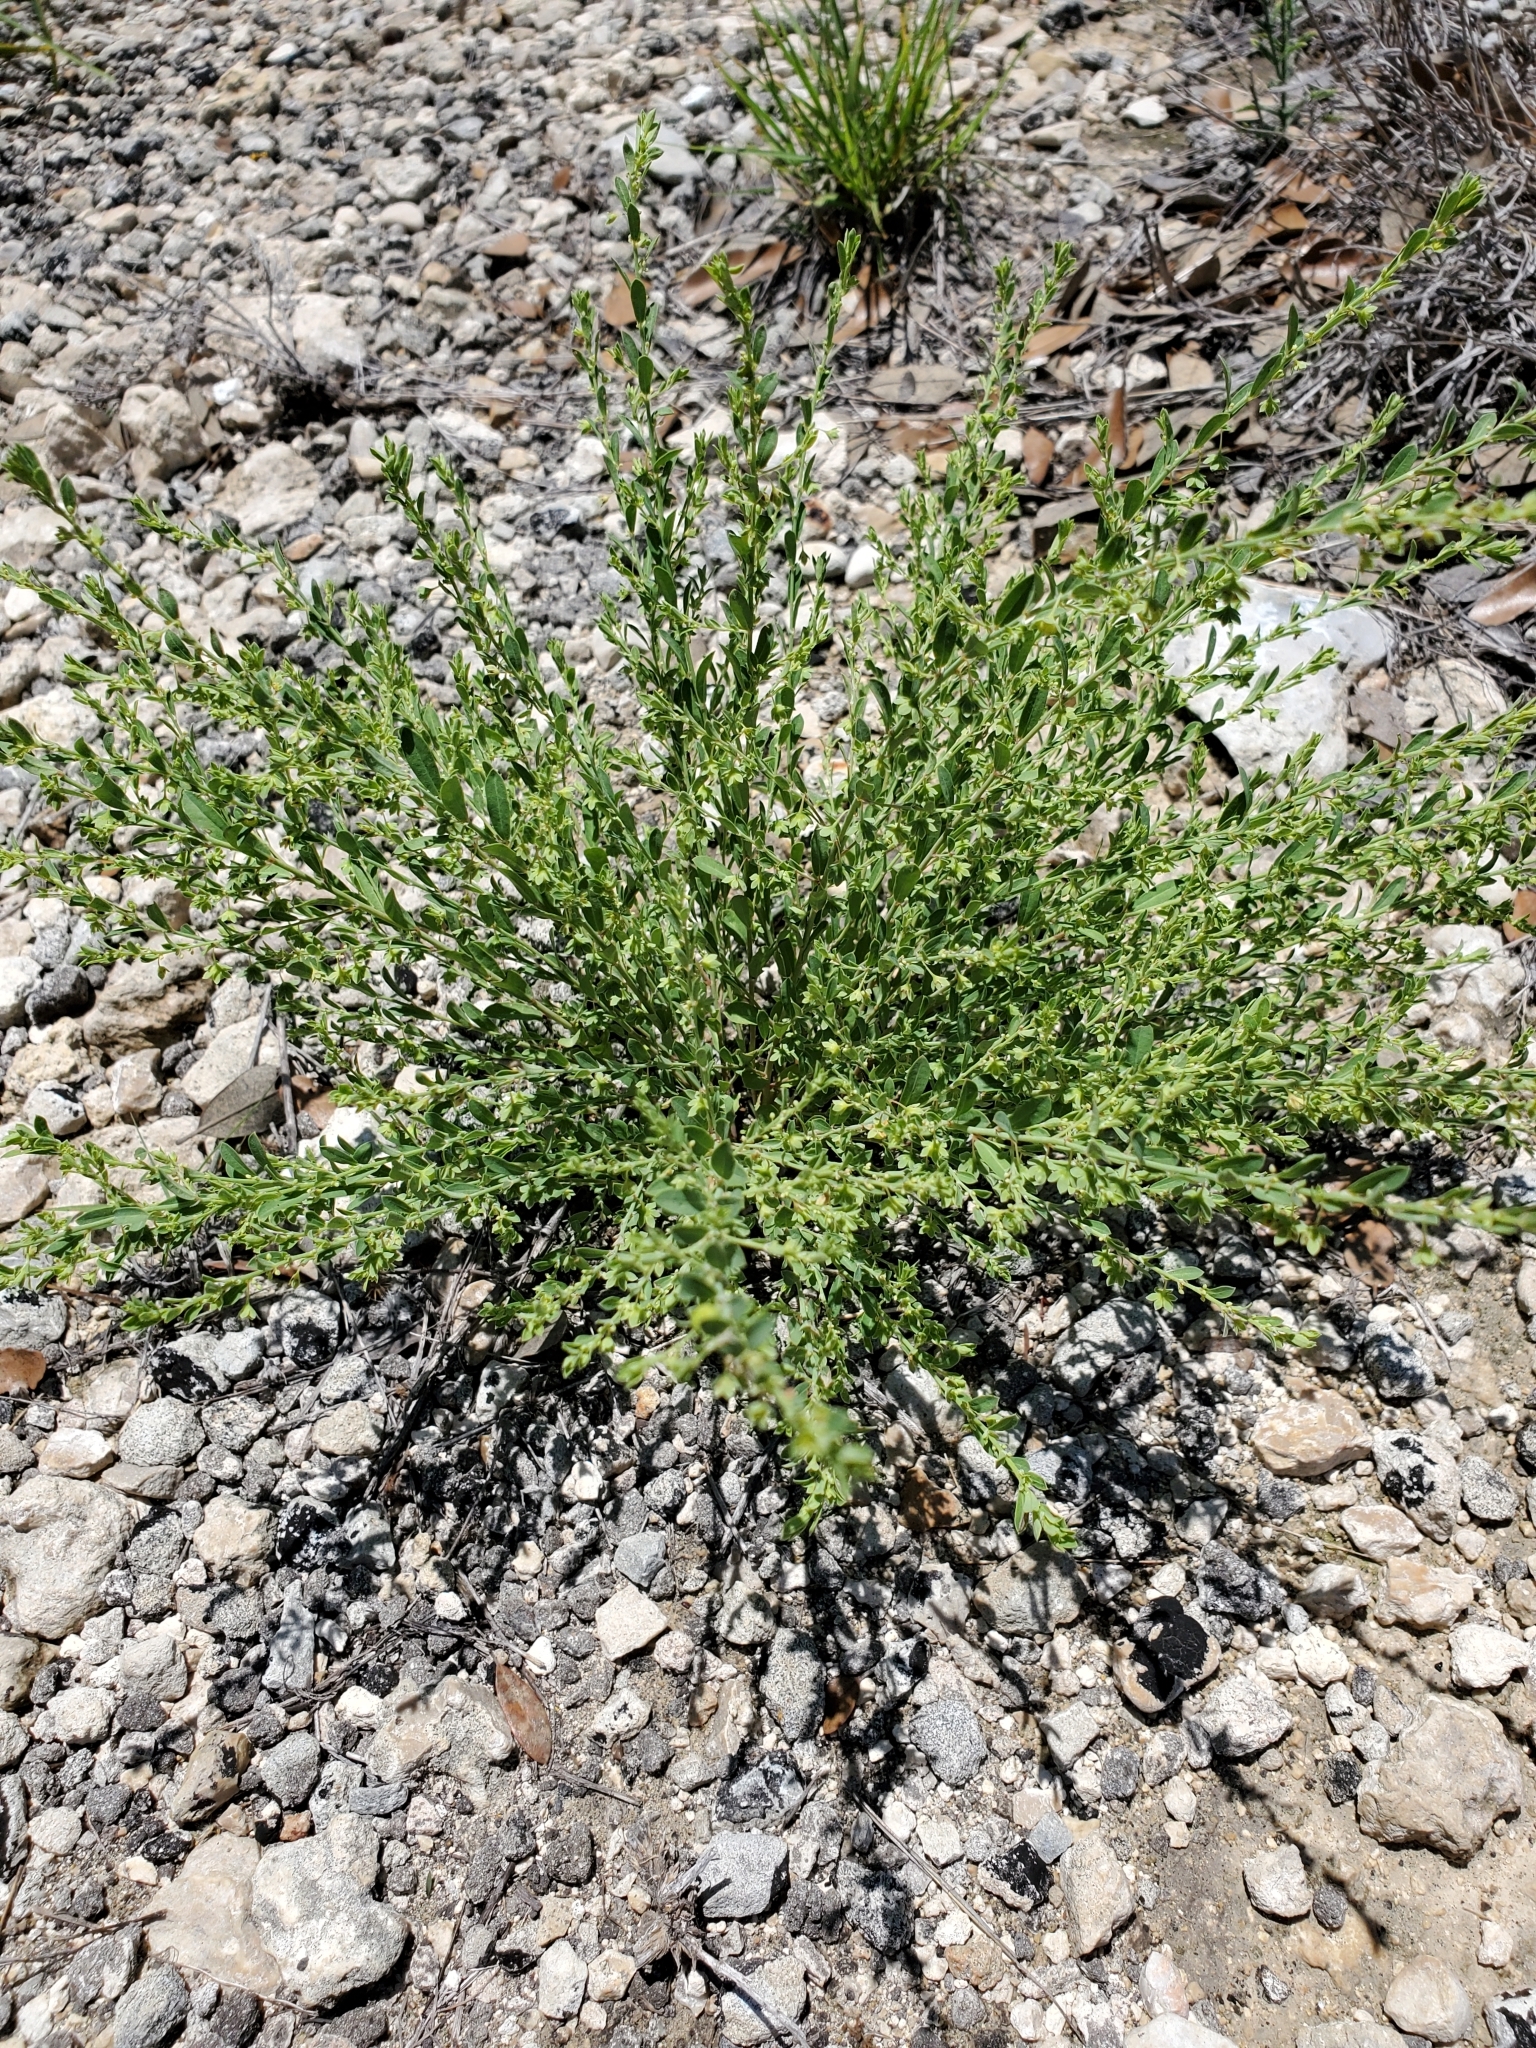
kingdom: Plantae
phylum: Tracheophyta
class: Magnoliopsida
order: Malpighiales
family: Phyllanthaceae
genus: Phyllanthus
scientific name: Phyllanthus polygonoides
